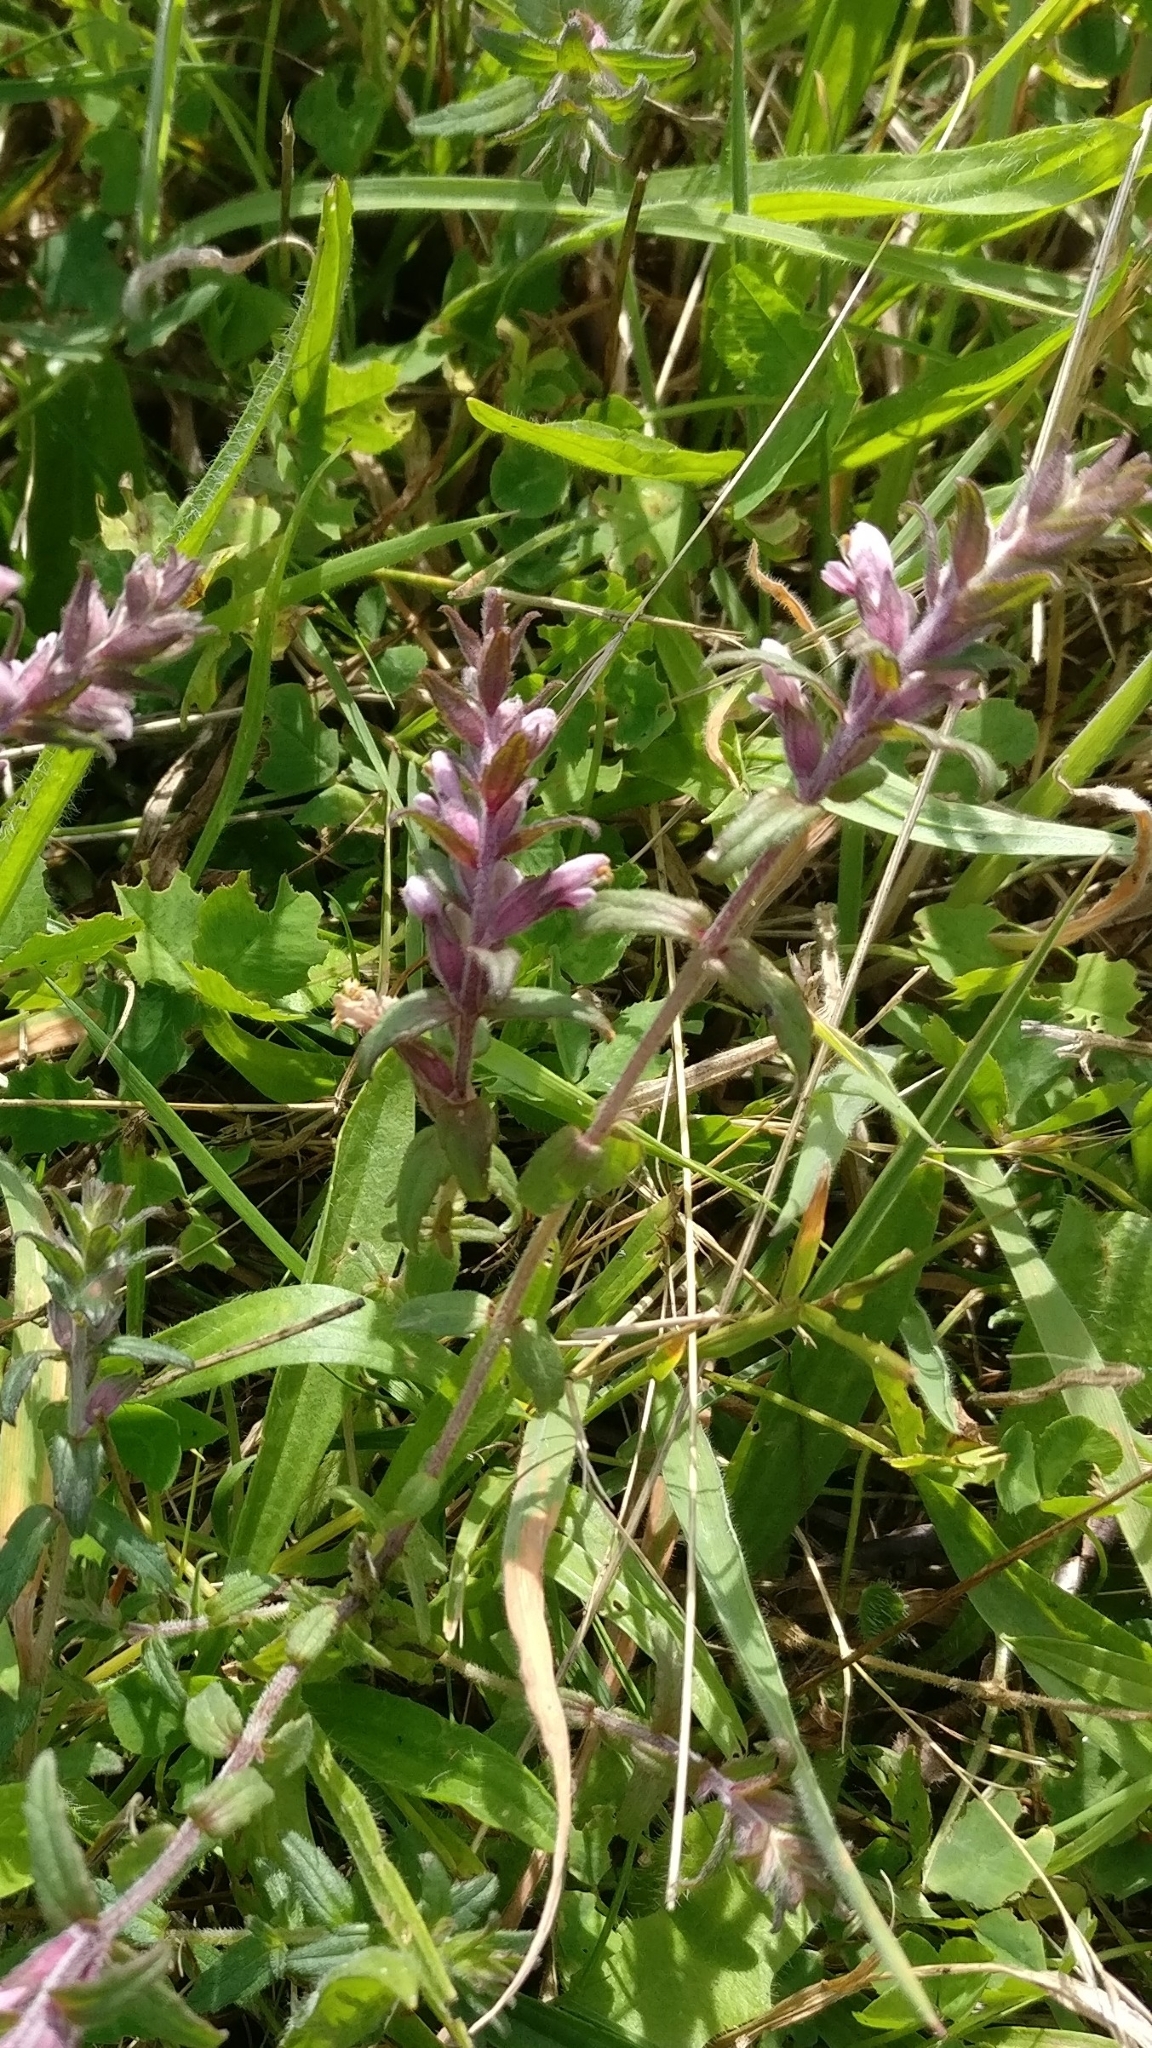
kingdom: Plantae
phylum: Tracheophyta
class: Magnoliopsida
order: Lamiales
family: Orobanchaceae
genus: Odontites
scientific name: Odontites vulgaris
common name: Broomrape
